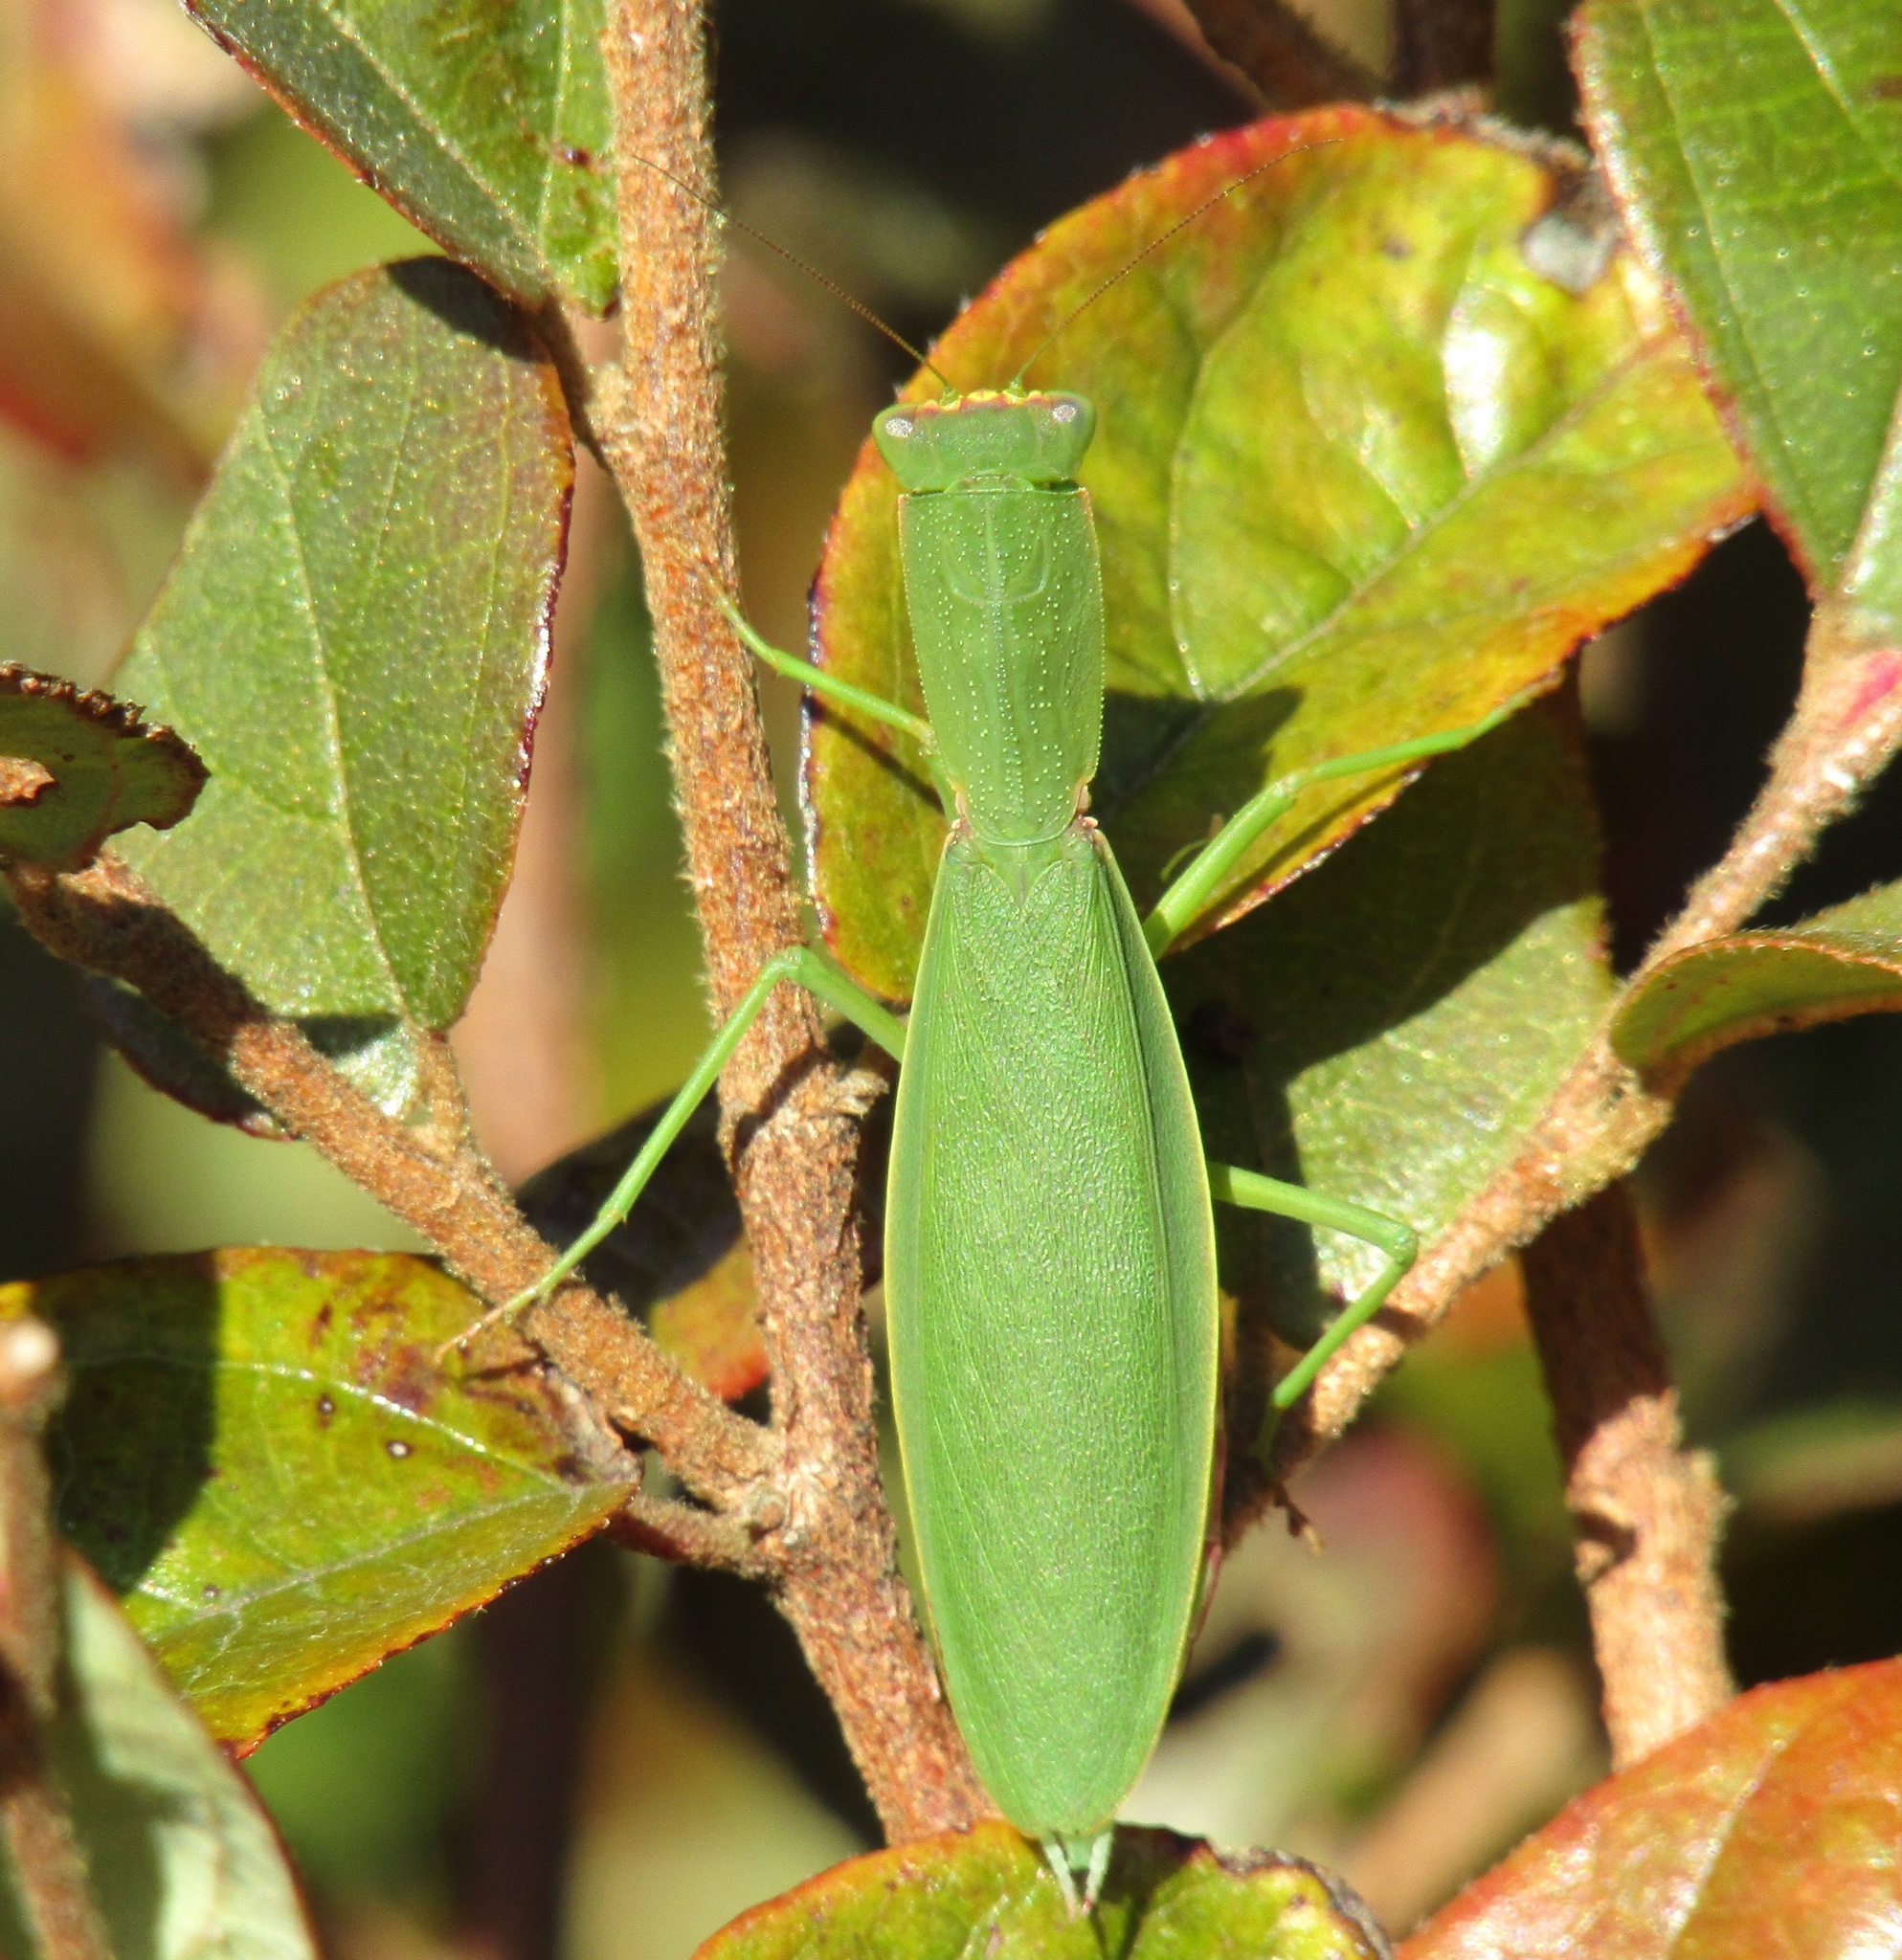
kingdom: Animalia
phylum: Arthropoda
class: Insecta
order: Mantodea
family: Mantidae
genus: Orthodera
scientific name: Orthodera novaezealandiae
